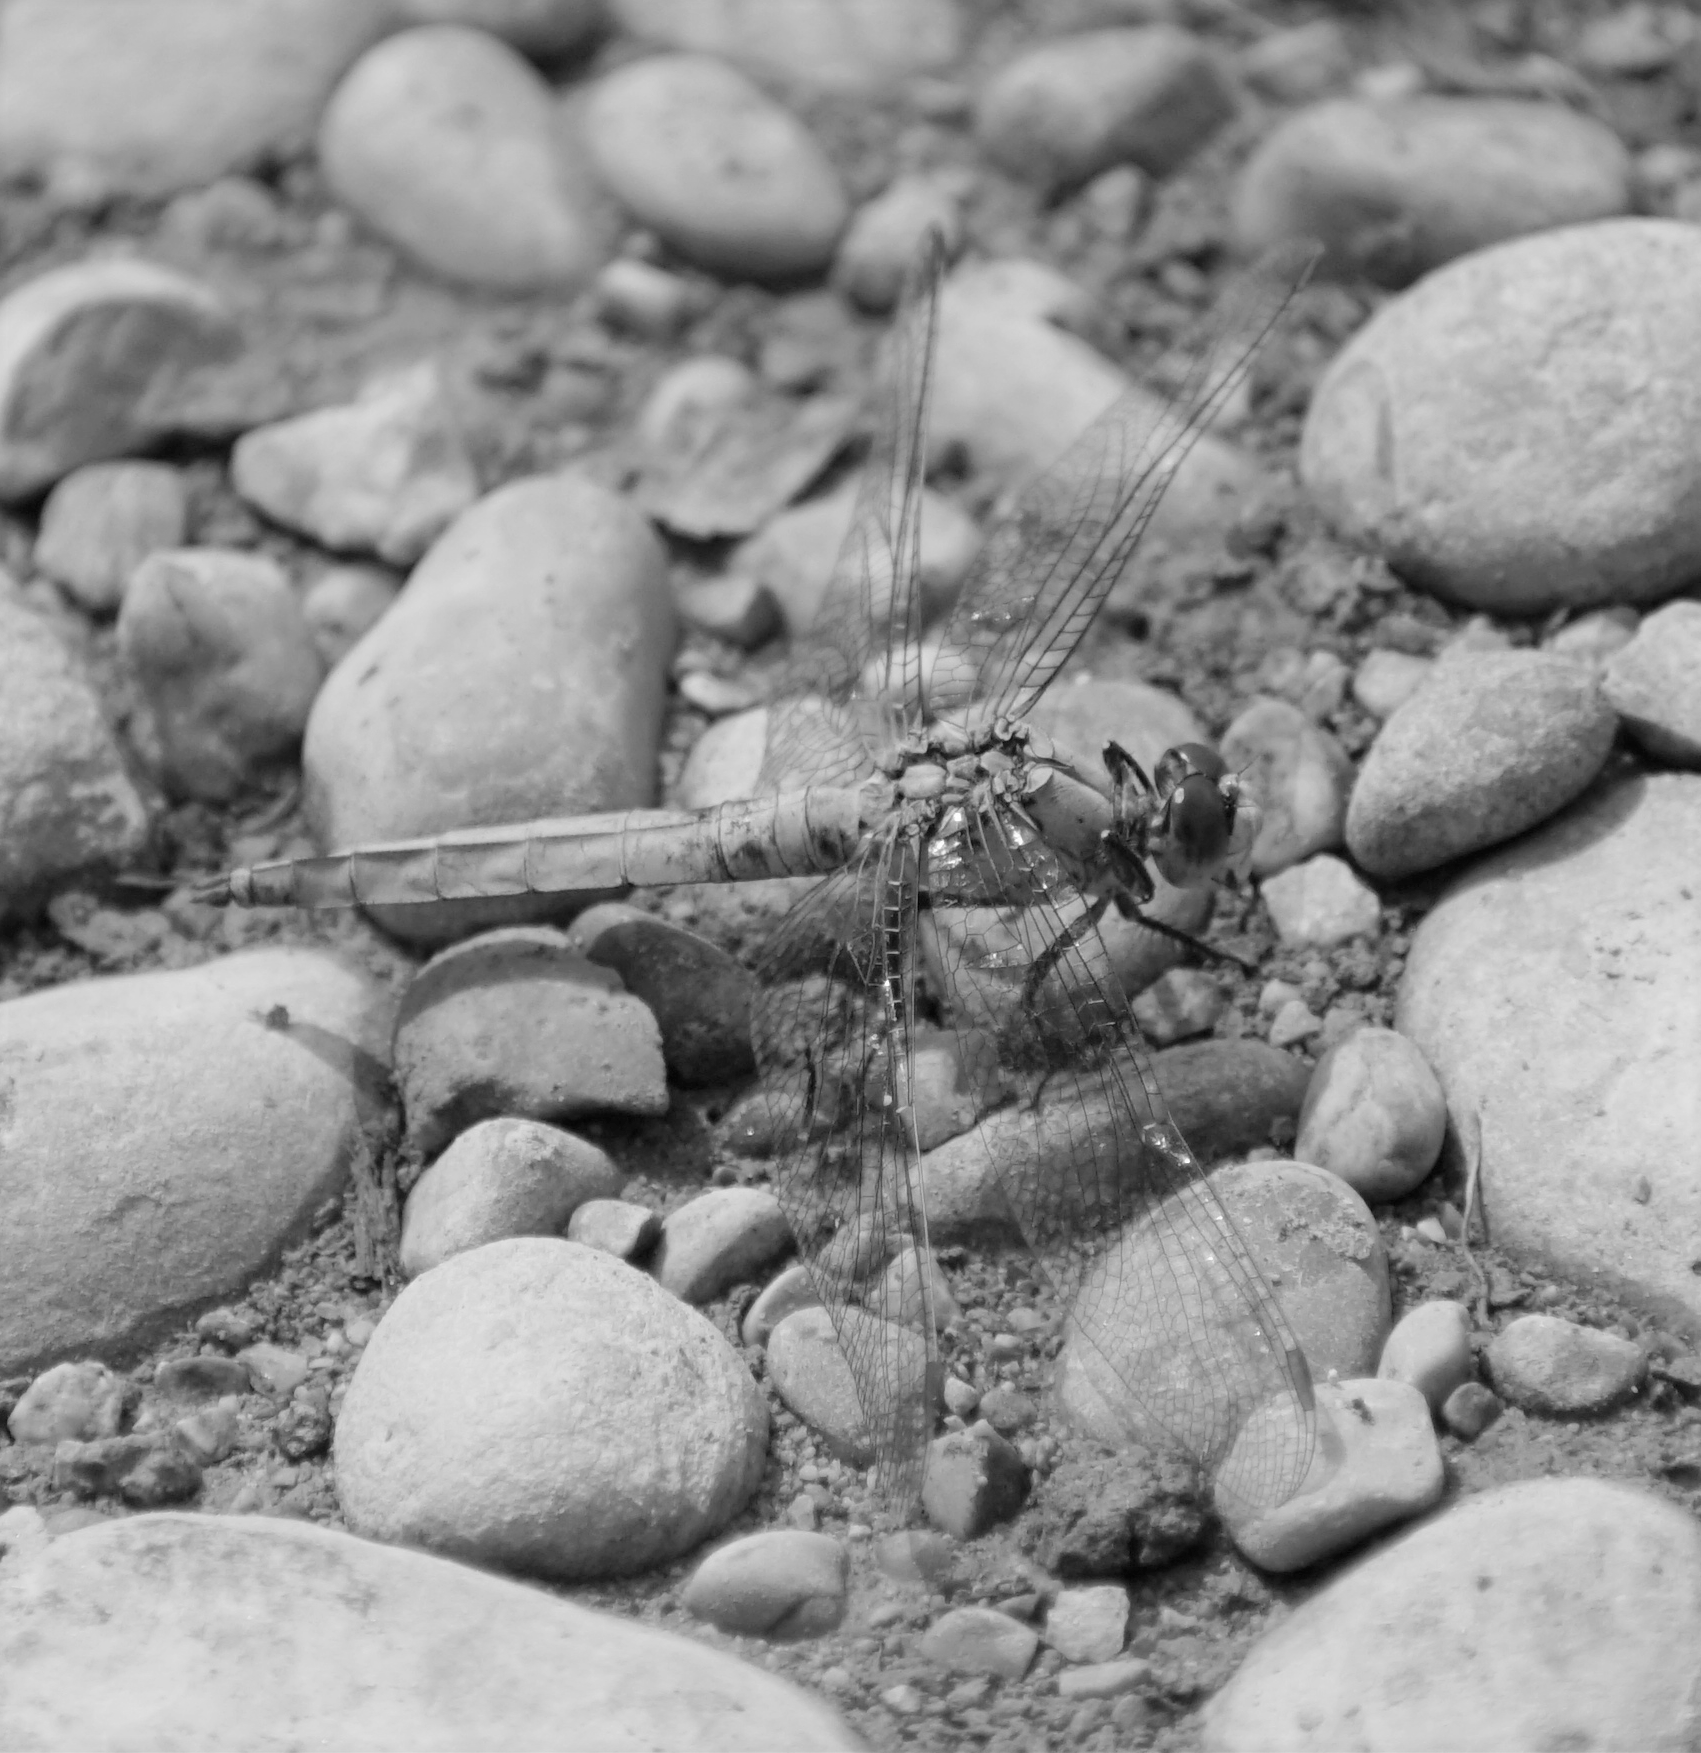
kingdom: Animalia
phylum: Arthropoda
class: Insecta
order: Odonata
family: Libellulidae
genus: Orthetrum
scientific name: Orthetrum brunneum
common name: Southern skimmer
